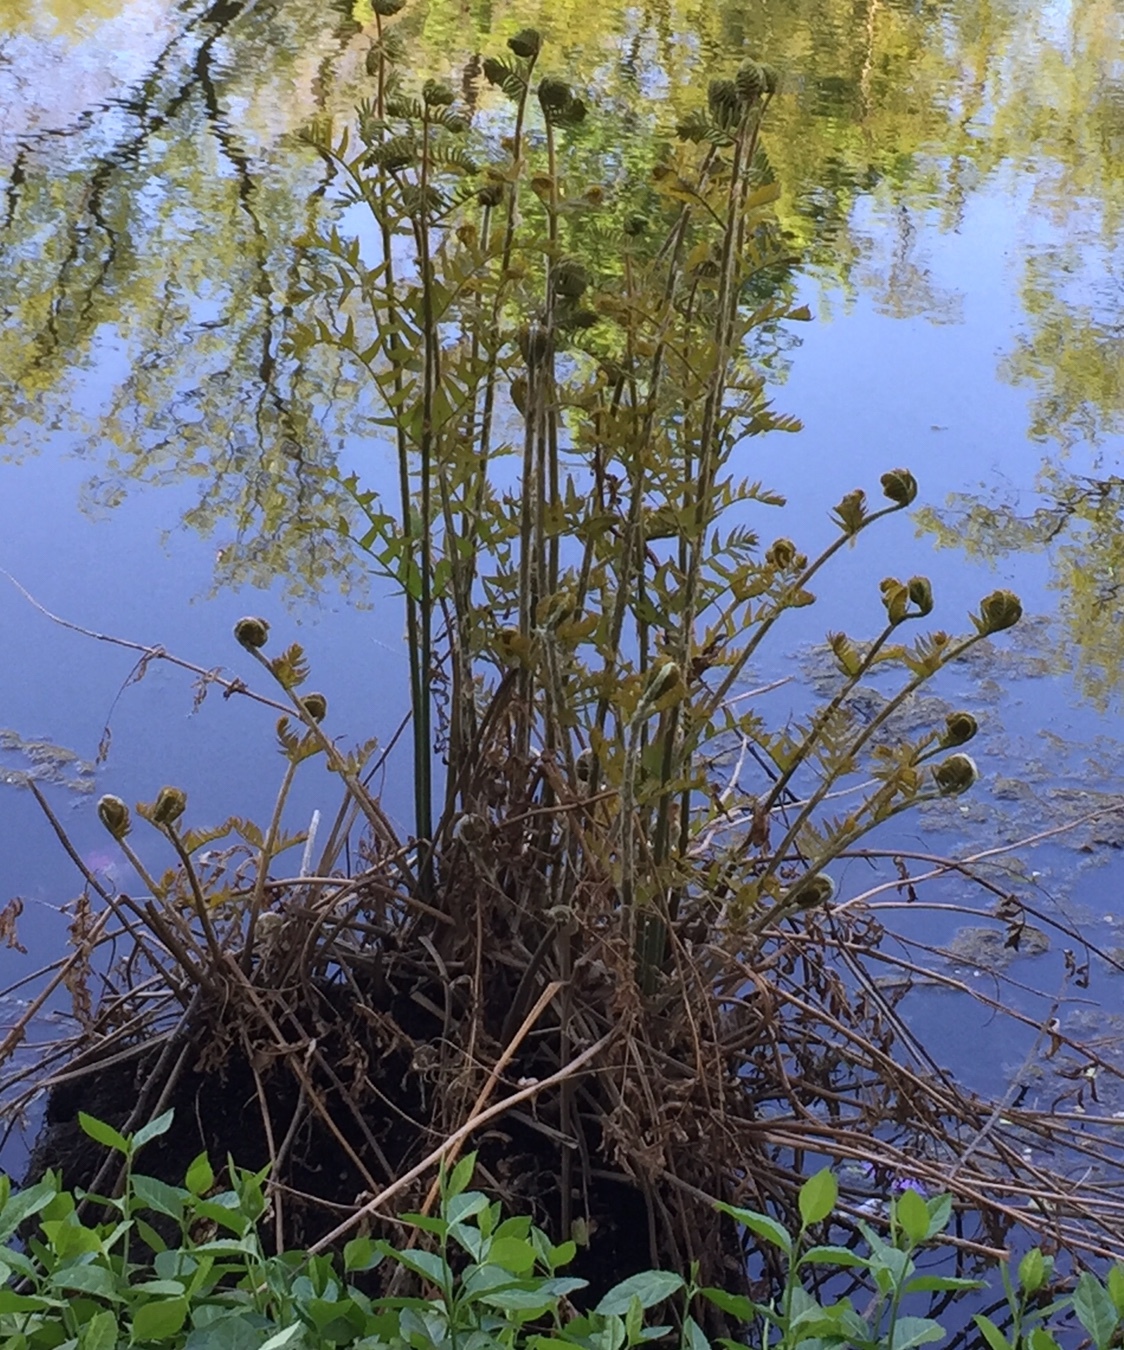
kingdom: Plantae
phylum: Tracheophyta
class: Polypodiopsida
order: Osmundales
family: Osmundaceae
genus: Osmunda
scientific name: Osmunda spectabilis
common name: American royal fern
